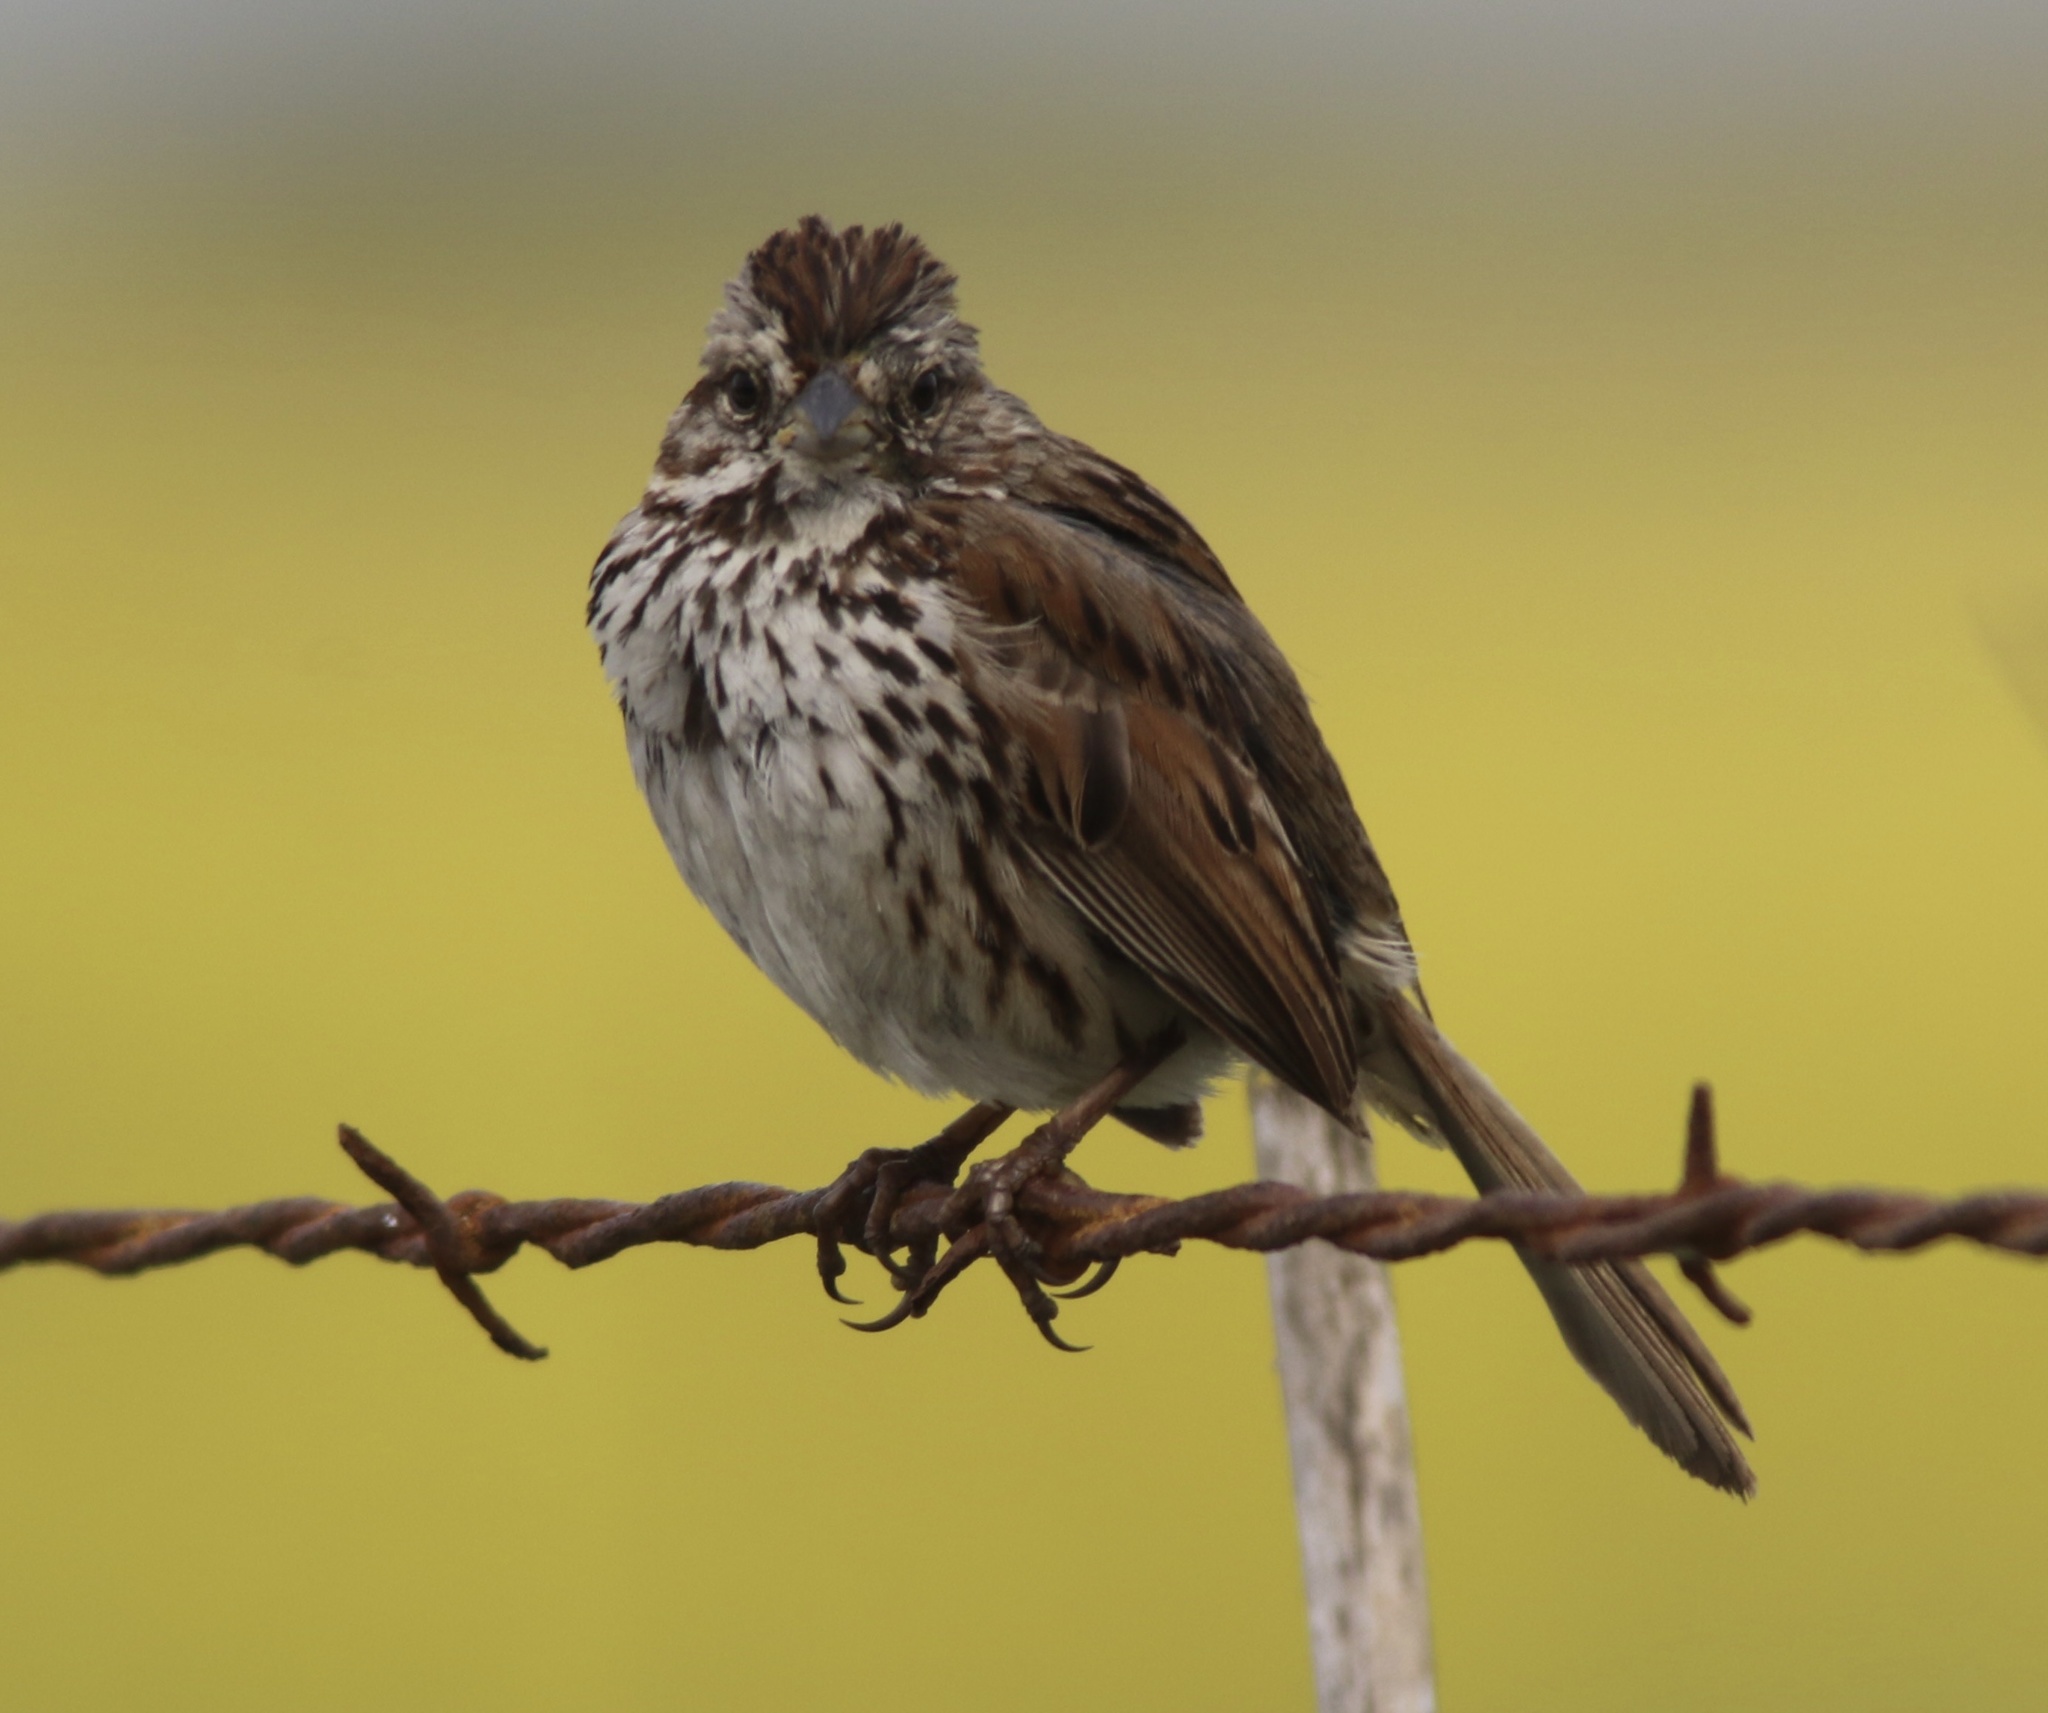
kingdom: Animalia
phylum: Chordata
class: Aves
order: Passeriformes
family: Passerellidae
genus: Melospiza
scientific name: Melospiza melodia
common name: Song sparrow
